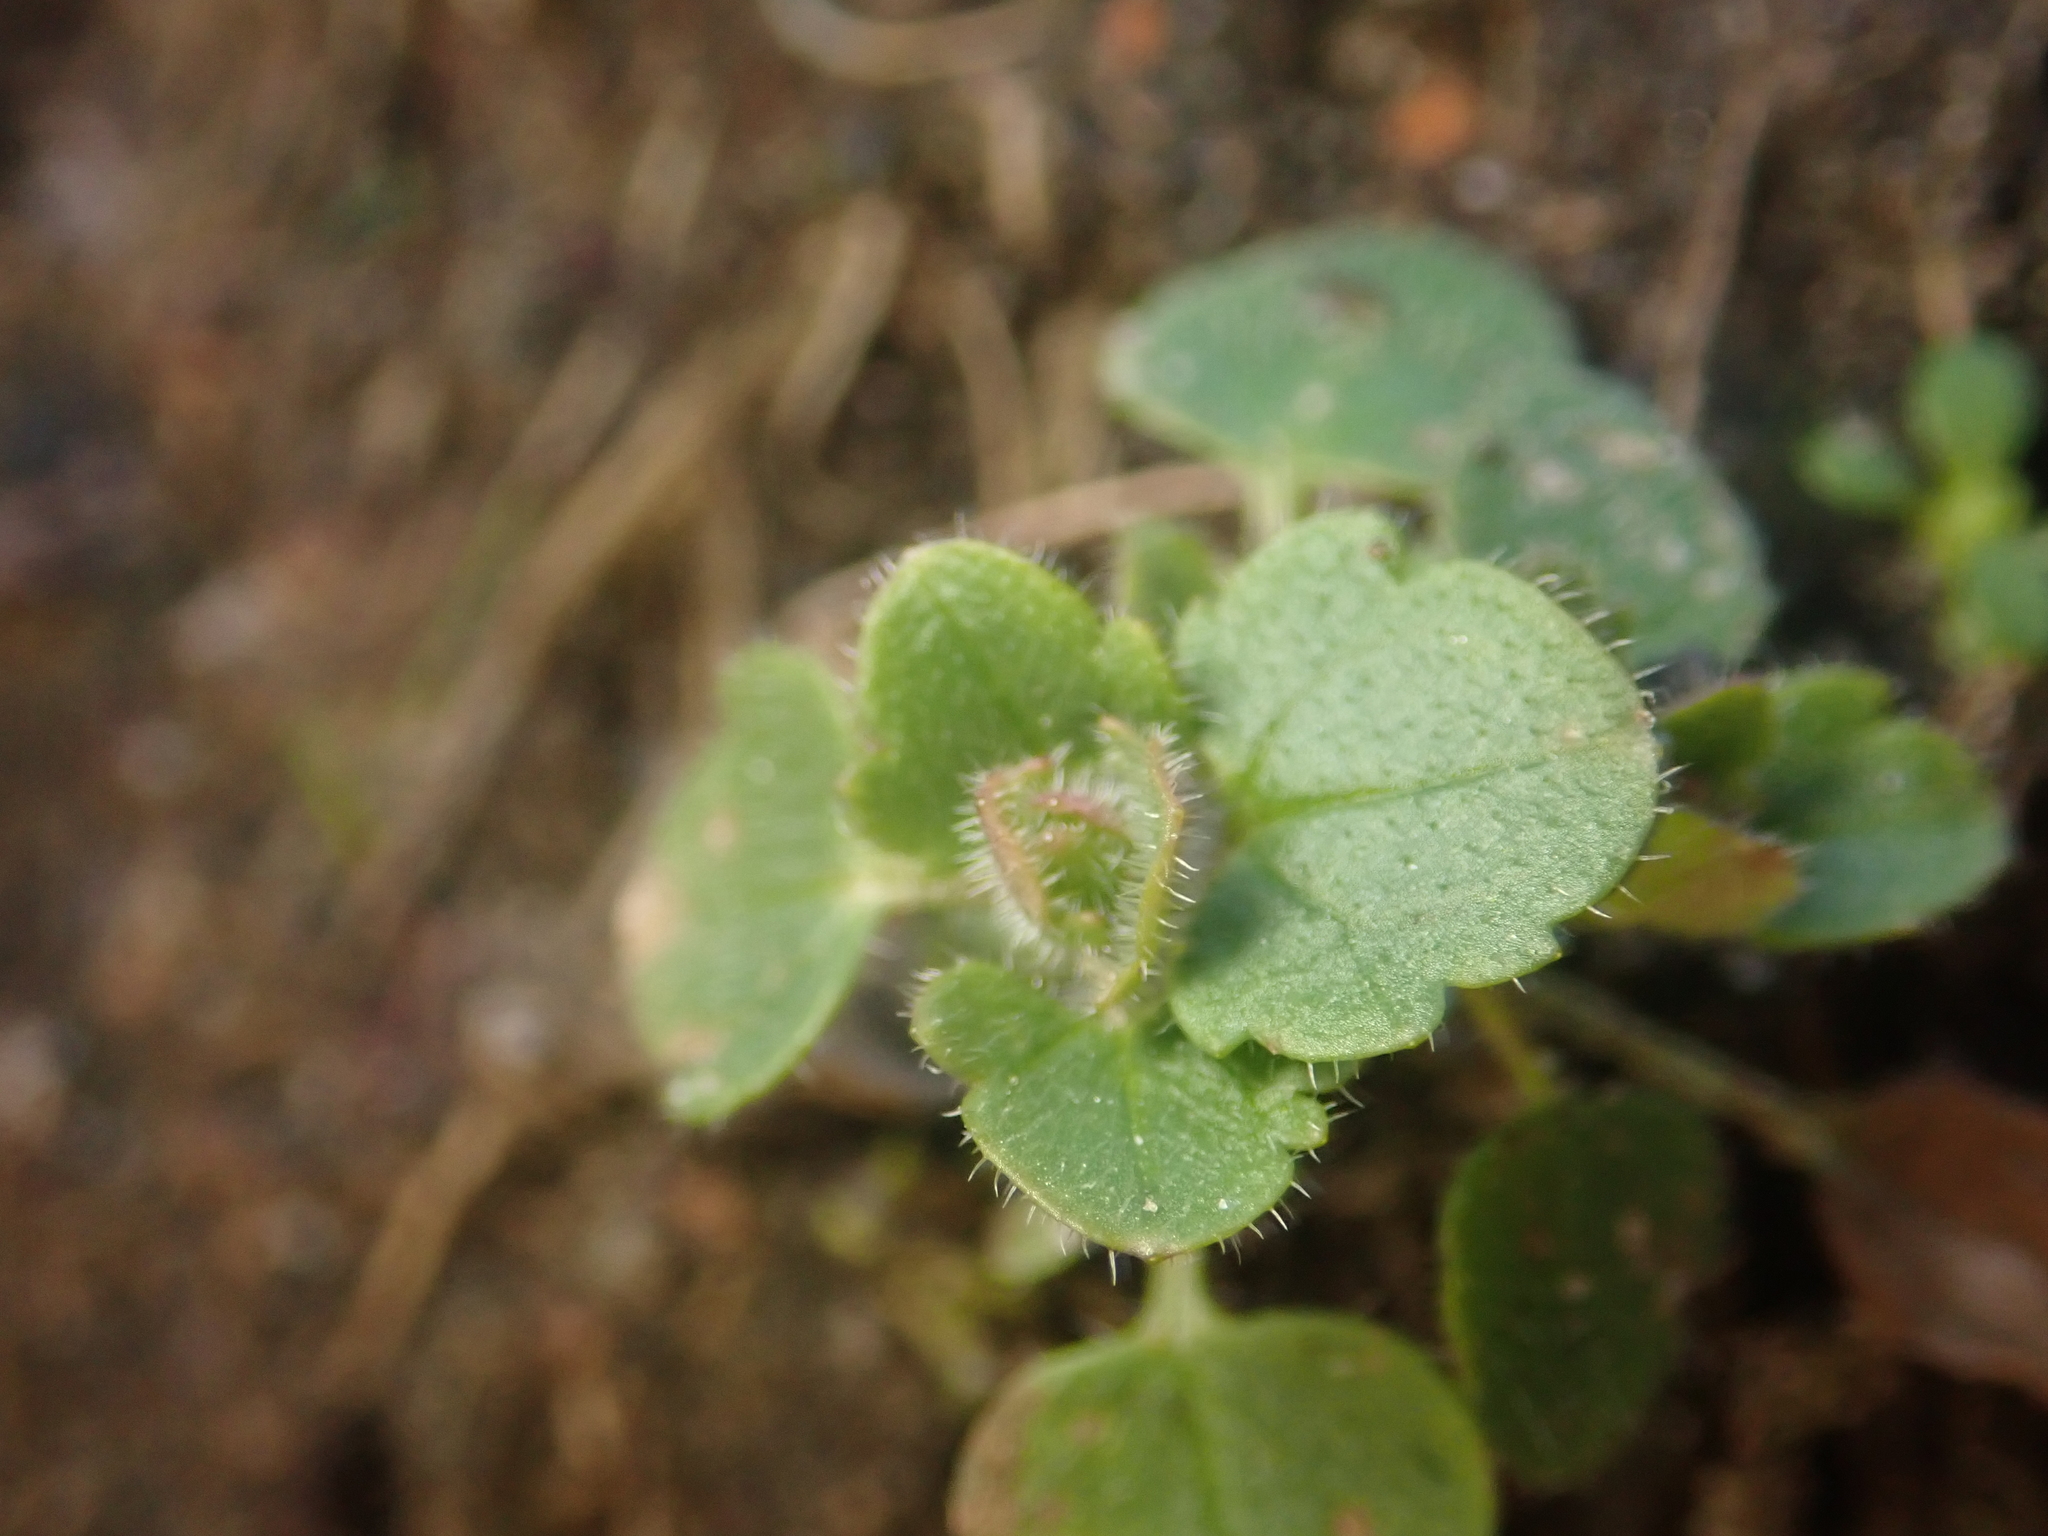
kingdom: Plantae
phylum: Tracheophyta
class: Magnoliopsida
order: Lamiales
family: Plantaginaceae
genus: Veronica
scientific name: Veronica hederifolia
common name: Ivy-leaved speedwell
